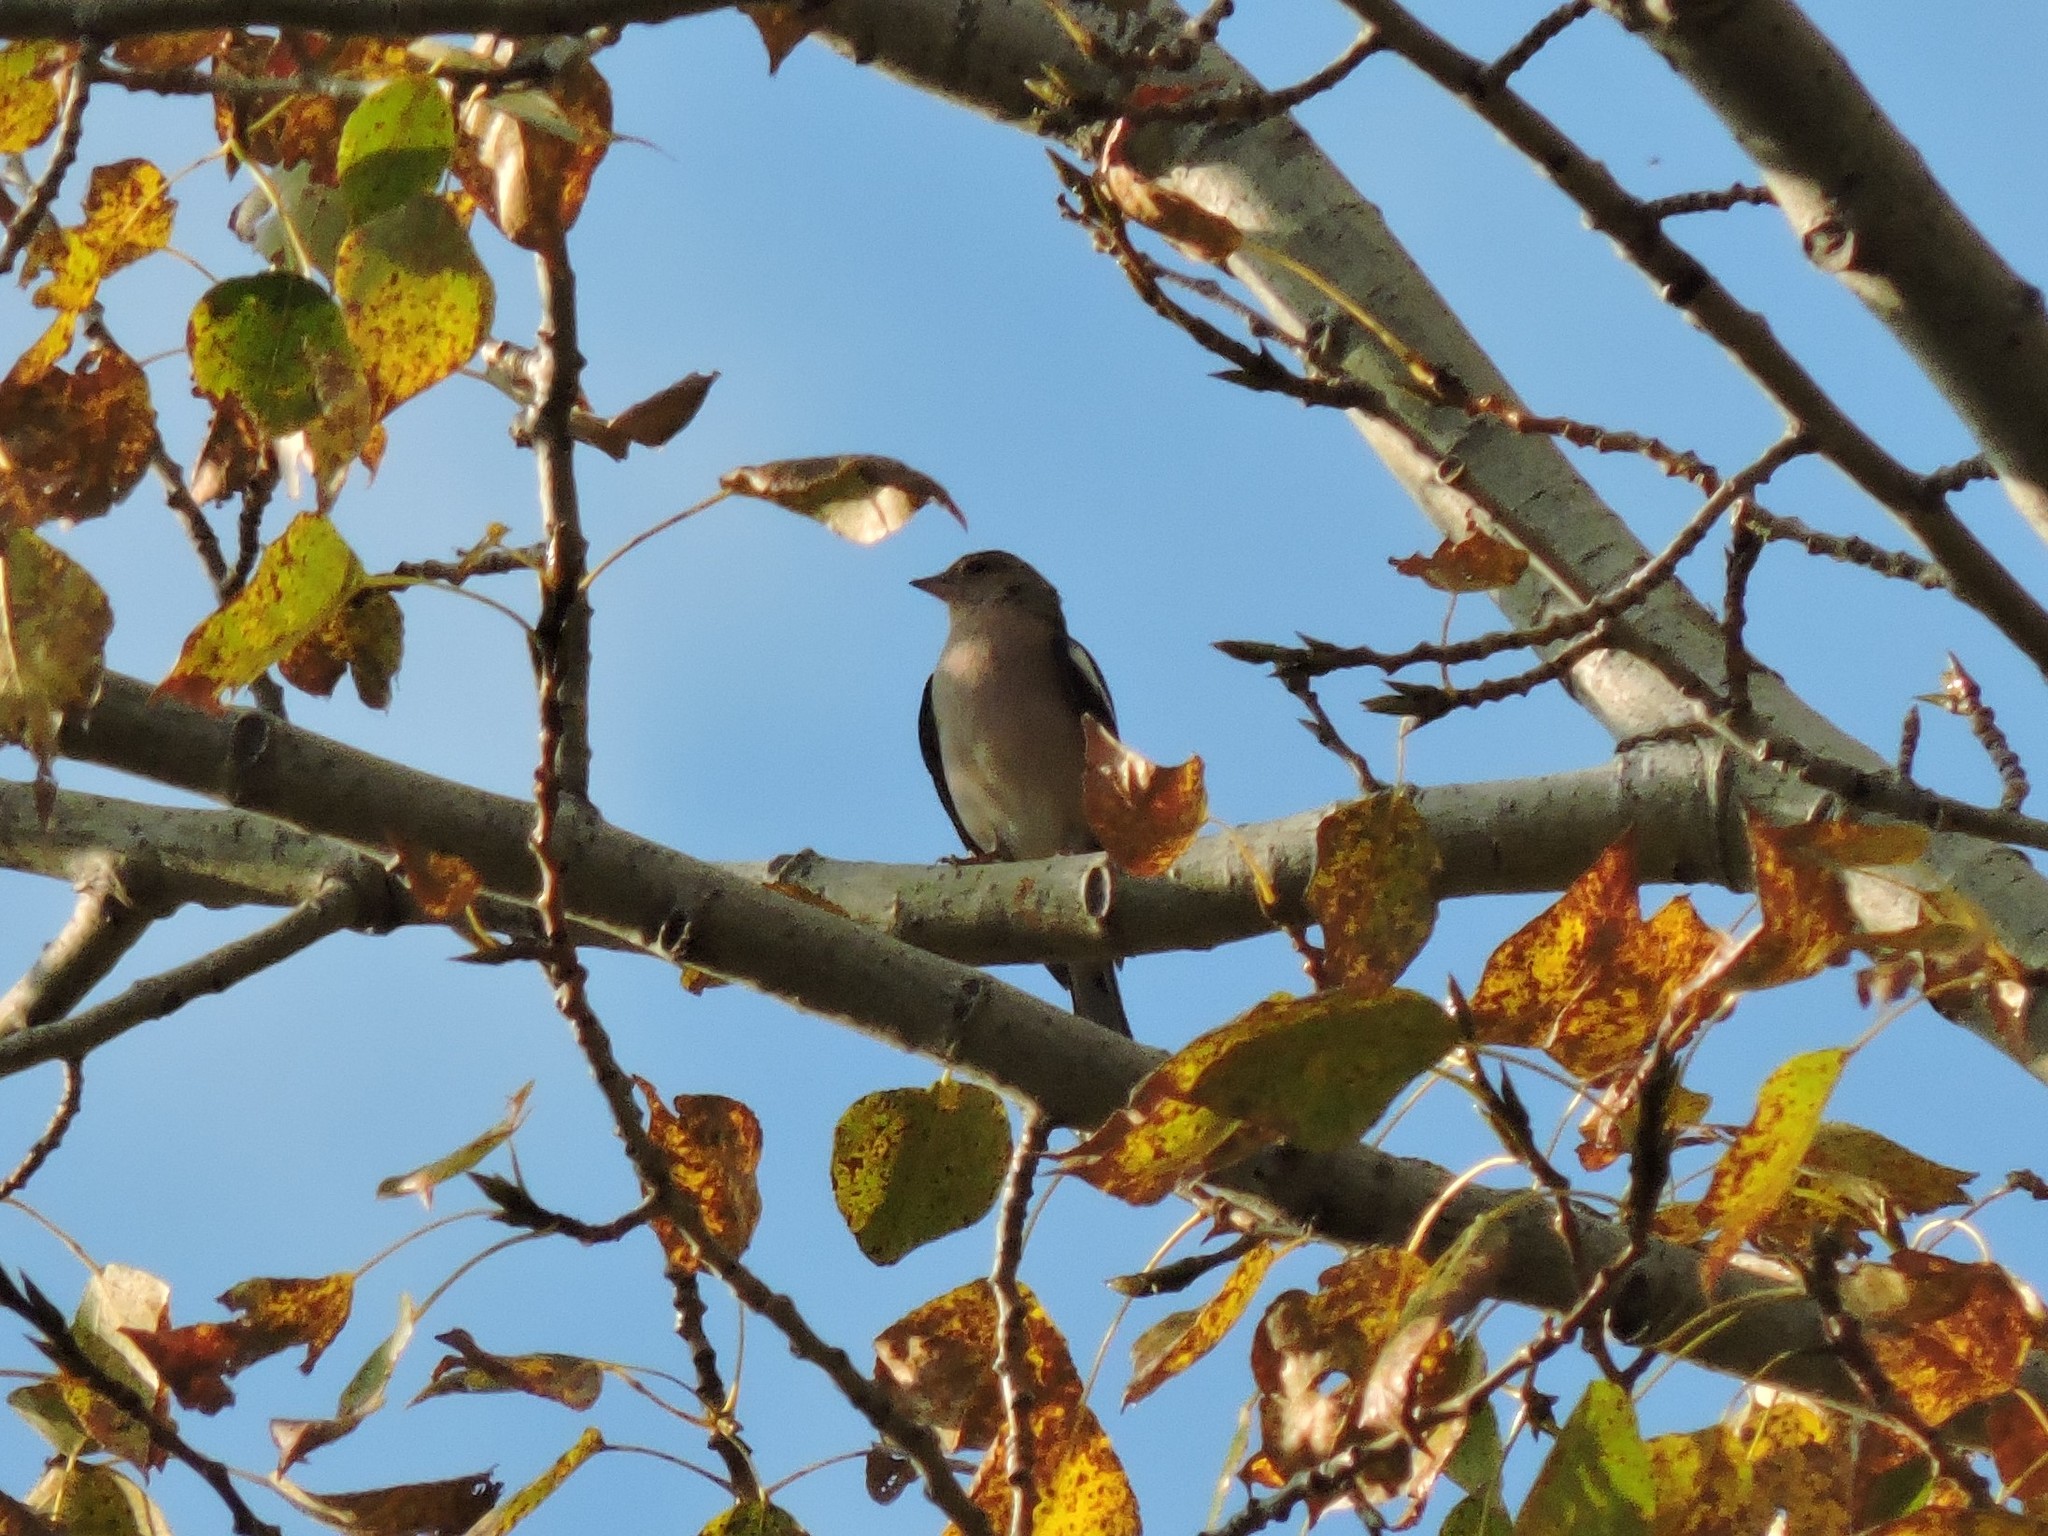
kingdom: Animalia
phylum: Chordata
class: Aves
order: Passeriformes
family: Fringillidae
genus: Fringilla
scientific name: Fringilla coelebs
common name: Common chaffinch
